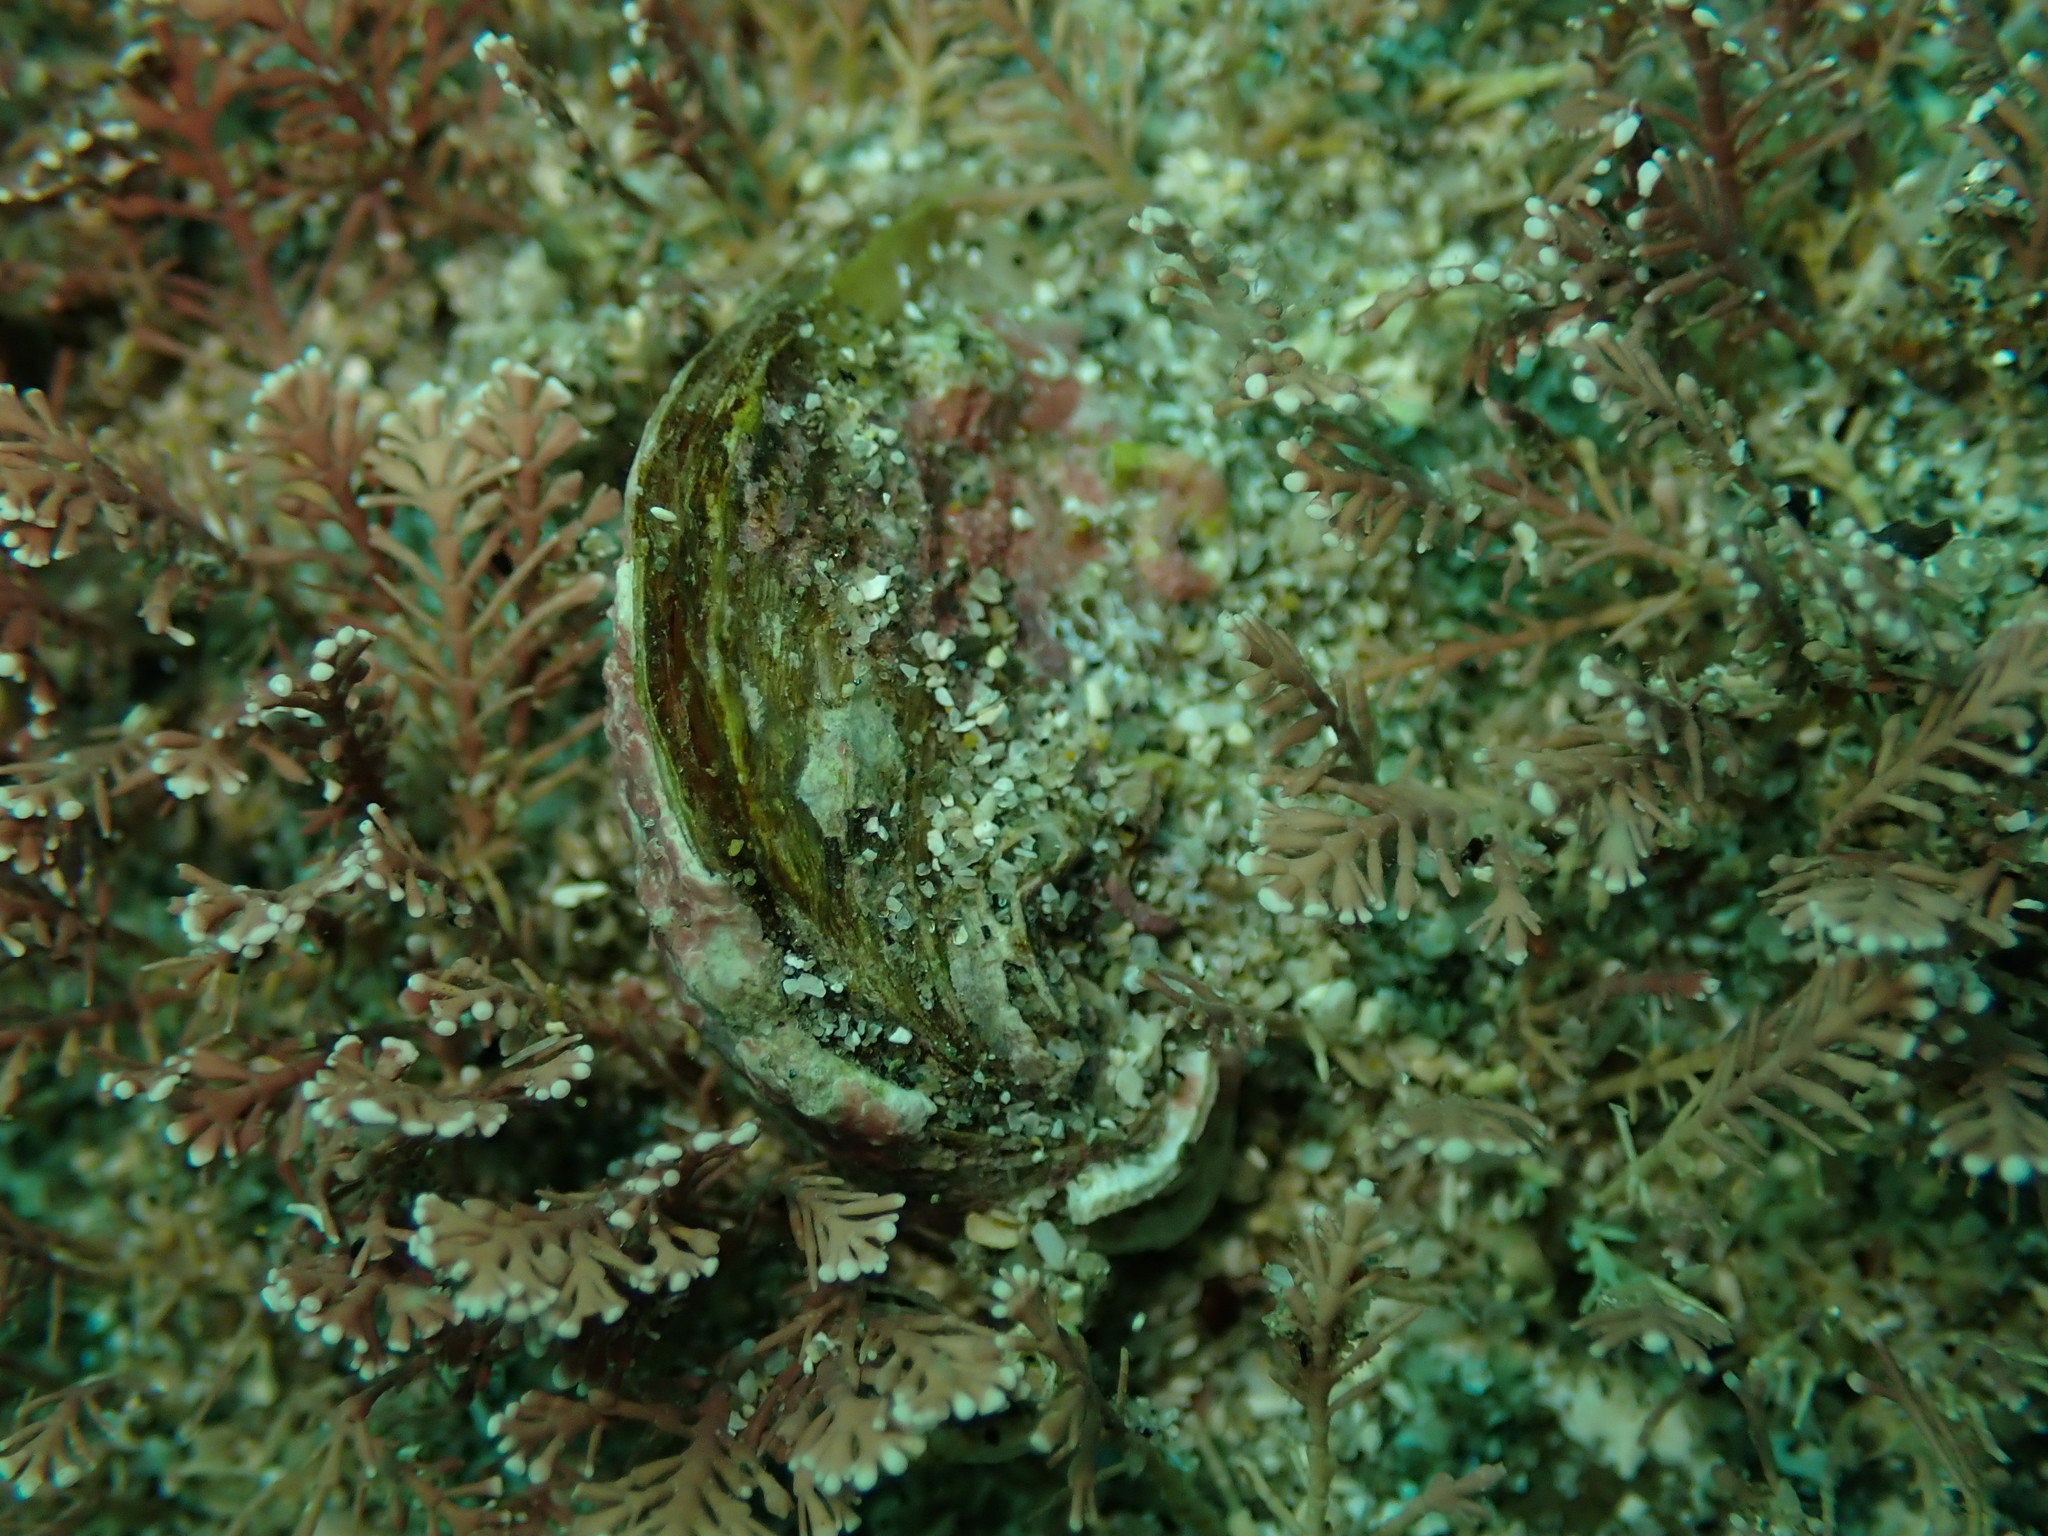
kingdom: Animalia
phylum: Mollusca
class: Bivalvia
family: Cleidothaeridae
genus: Cleidothaerus
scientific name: Cleidothaerus albidus
